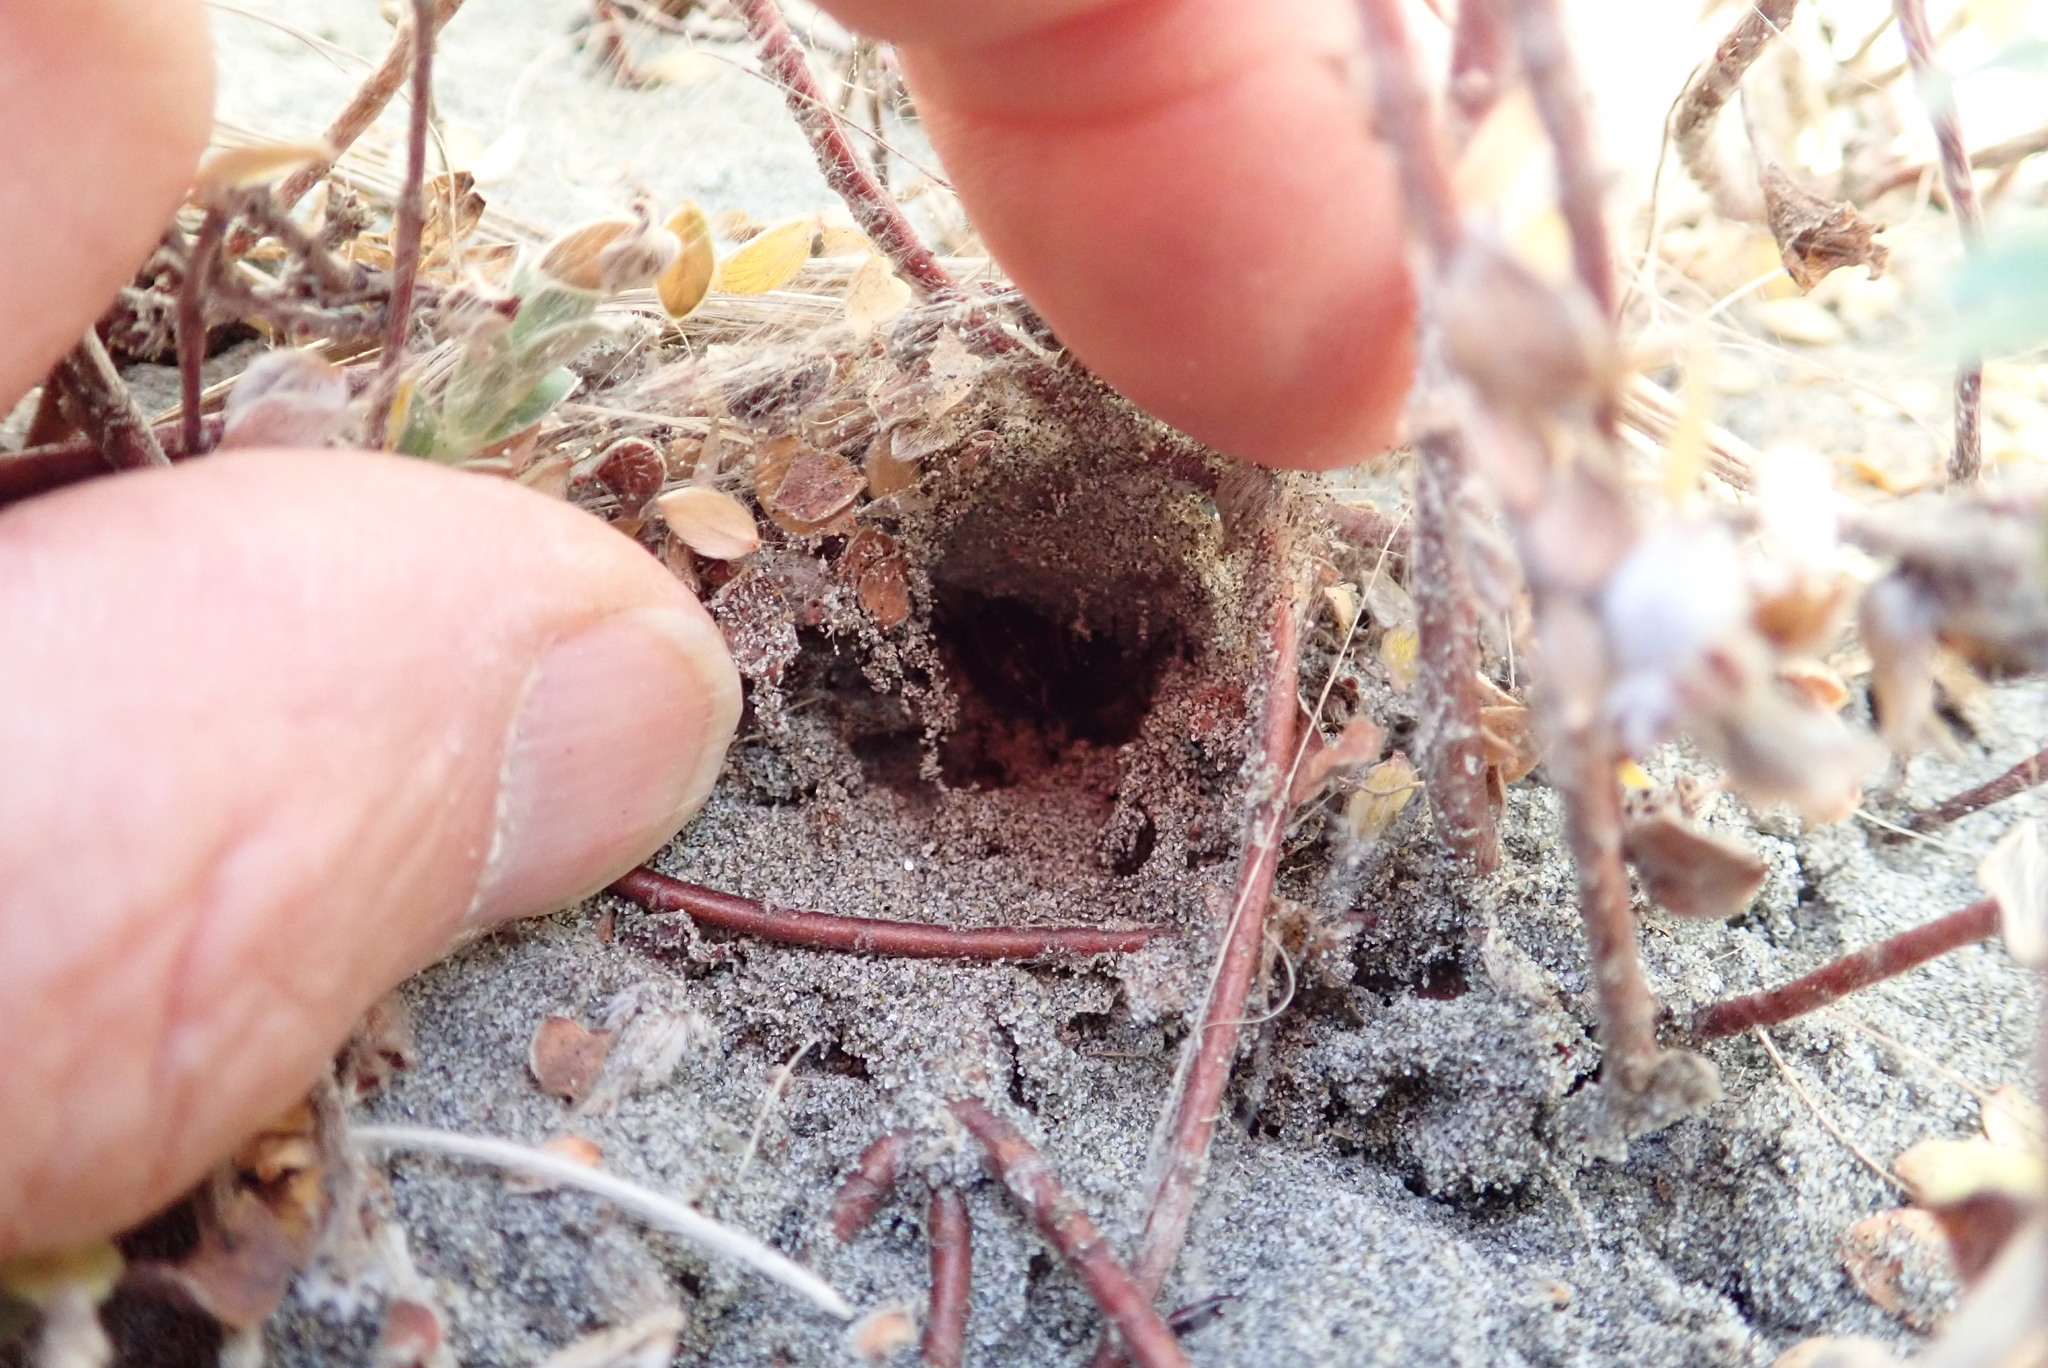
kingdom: Animalia
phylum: Arthropoda
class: Arachnida
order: Araneae
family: Theridiidae
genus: Latrodectus
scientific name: Latrodectus katipo
